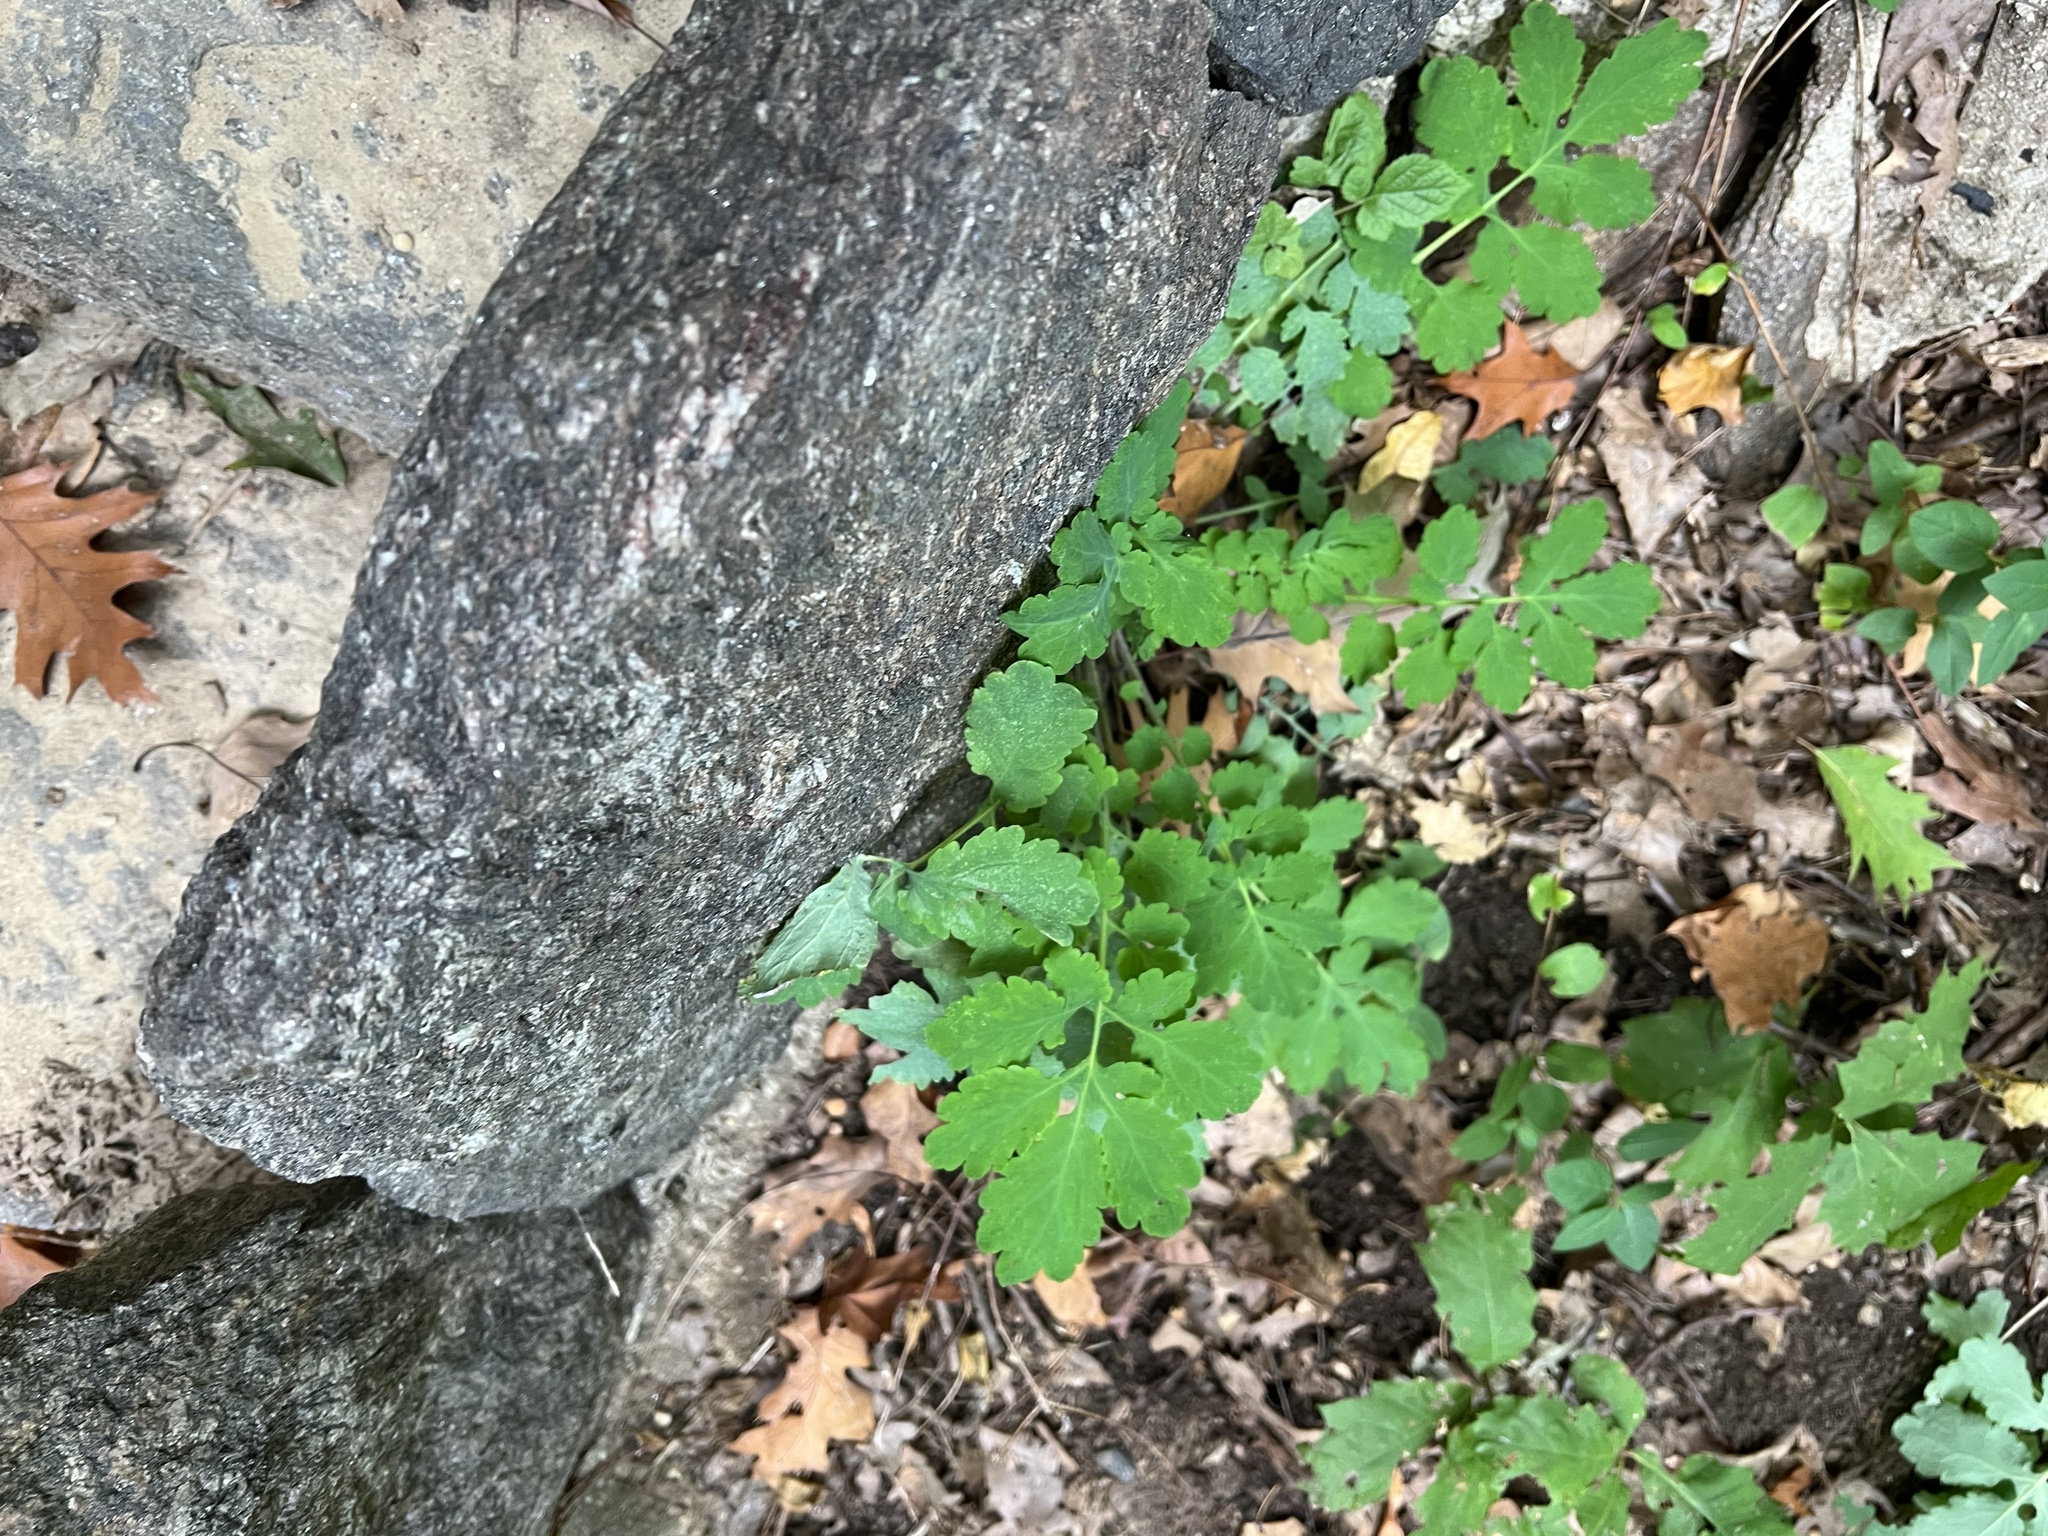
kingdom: Plantae
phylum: Tracheophyta
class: Magnoliopsida
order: Ranunculales
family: Papaveraceae
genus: Chelidonium
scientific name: Chelidonium majus
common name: Greater celandine
